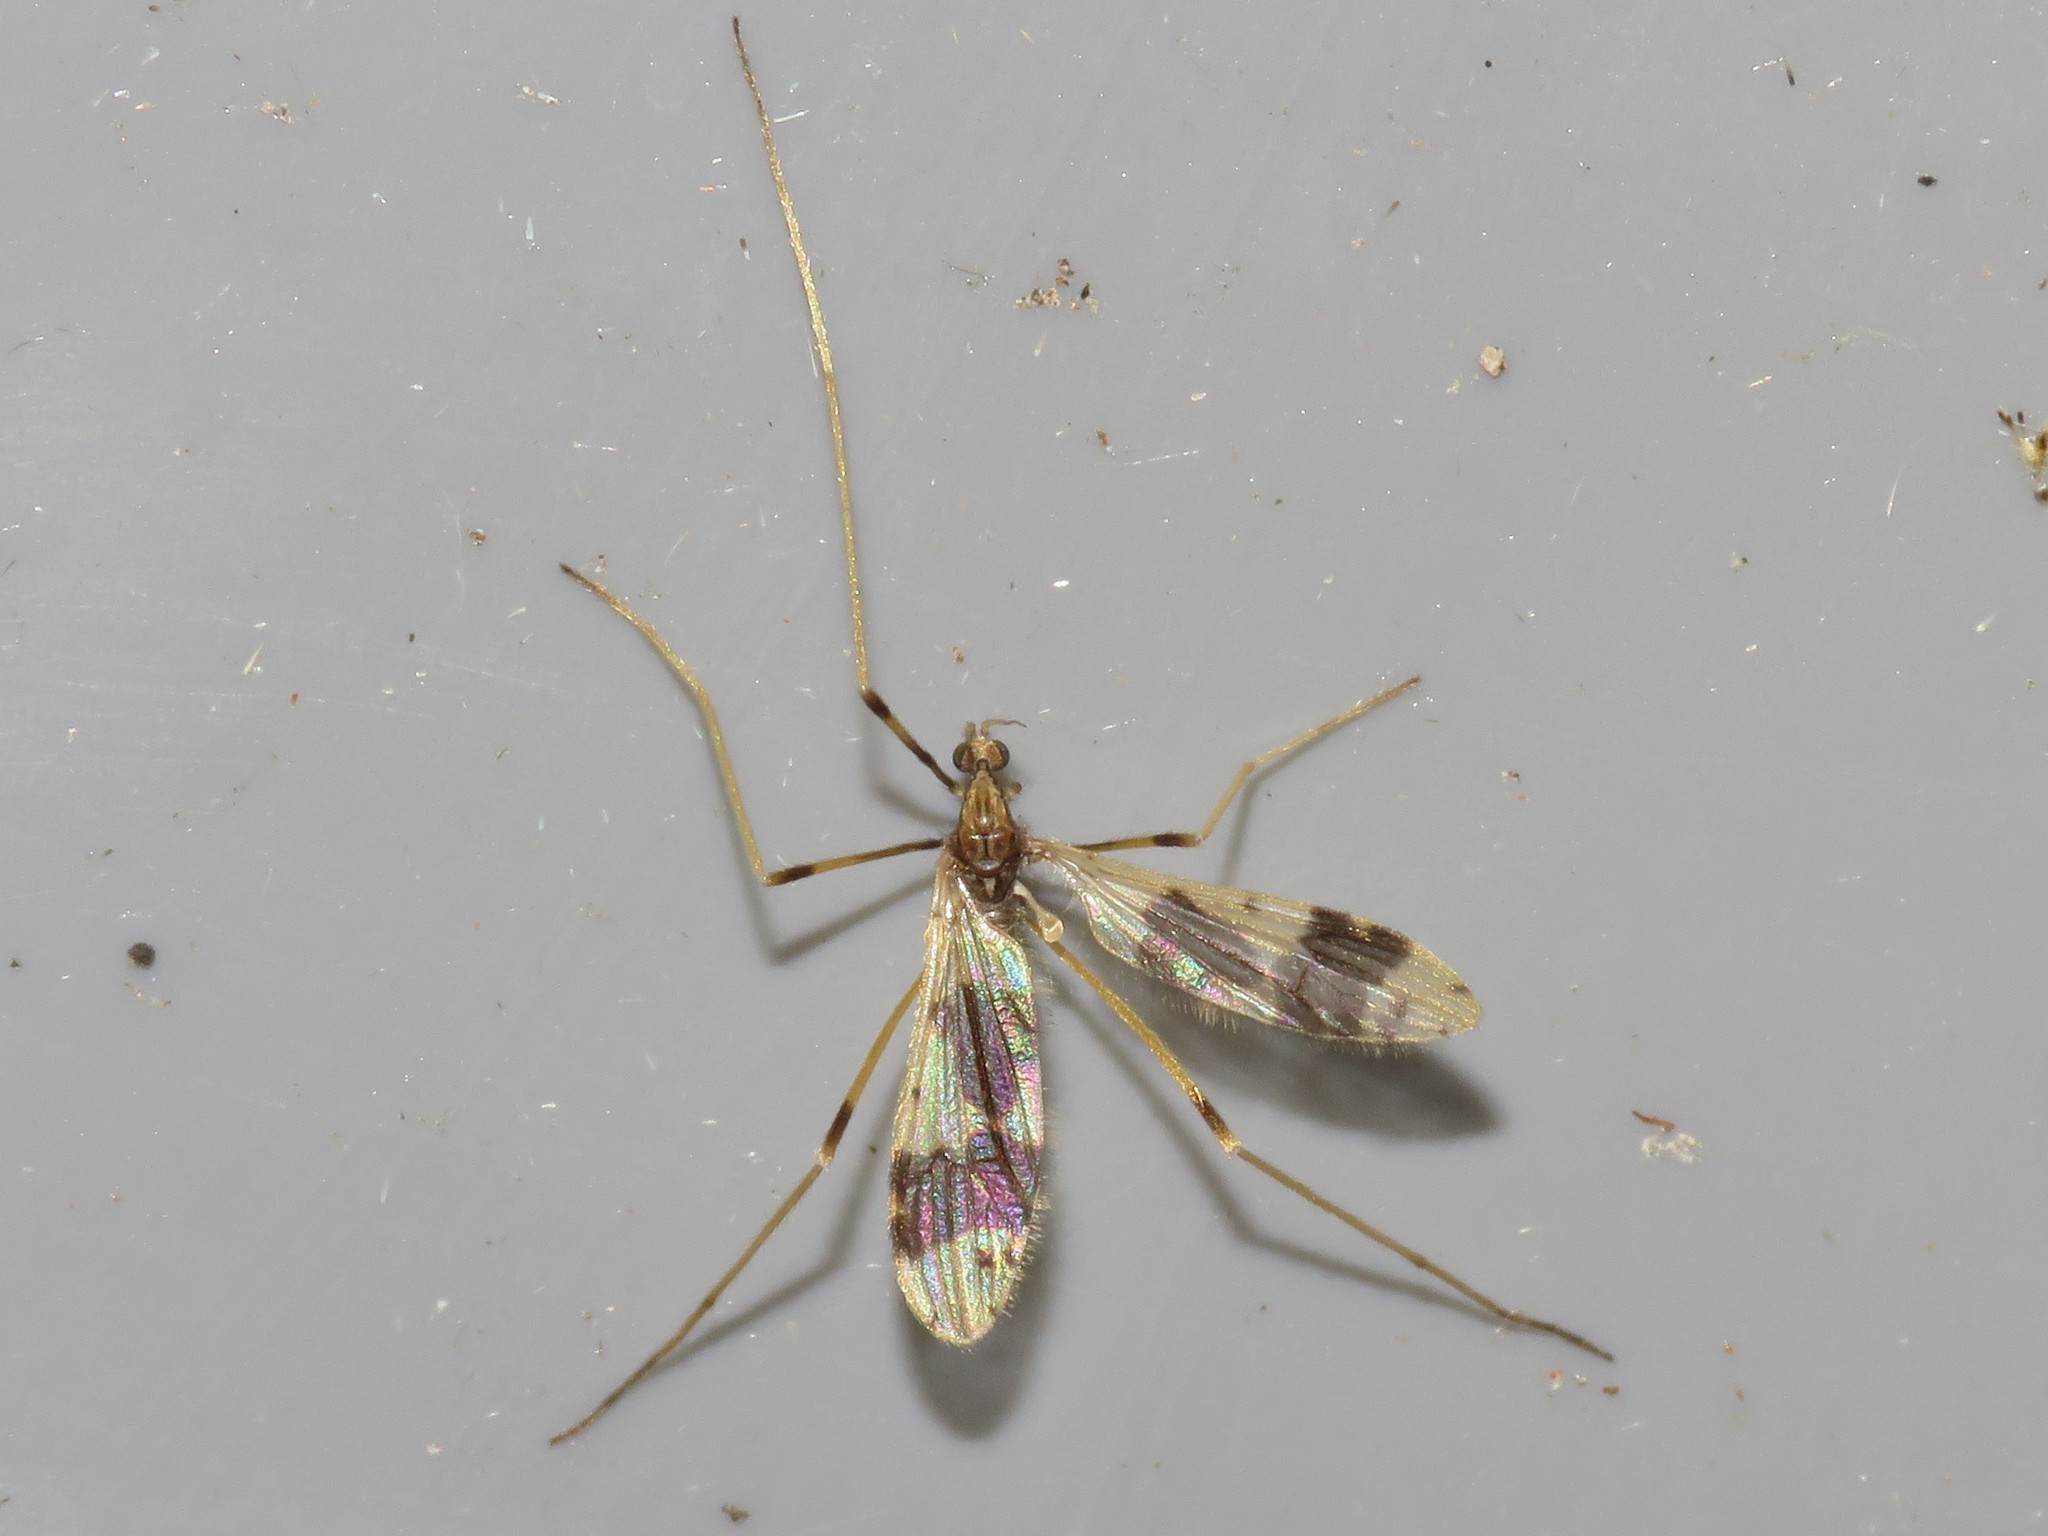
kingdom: Animalia
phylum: Arthropoda
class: Insecta
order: Diptera
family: Limoniidae
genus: Ilisia
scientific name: Ilisia venusta
